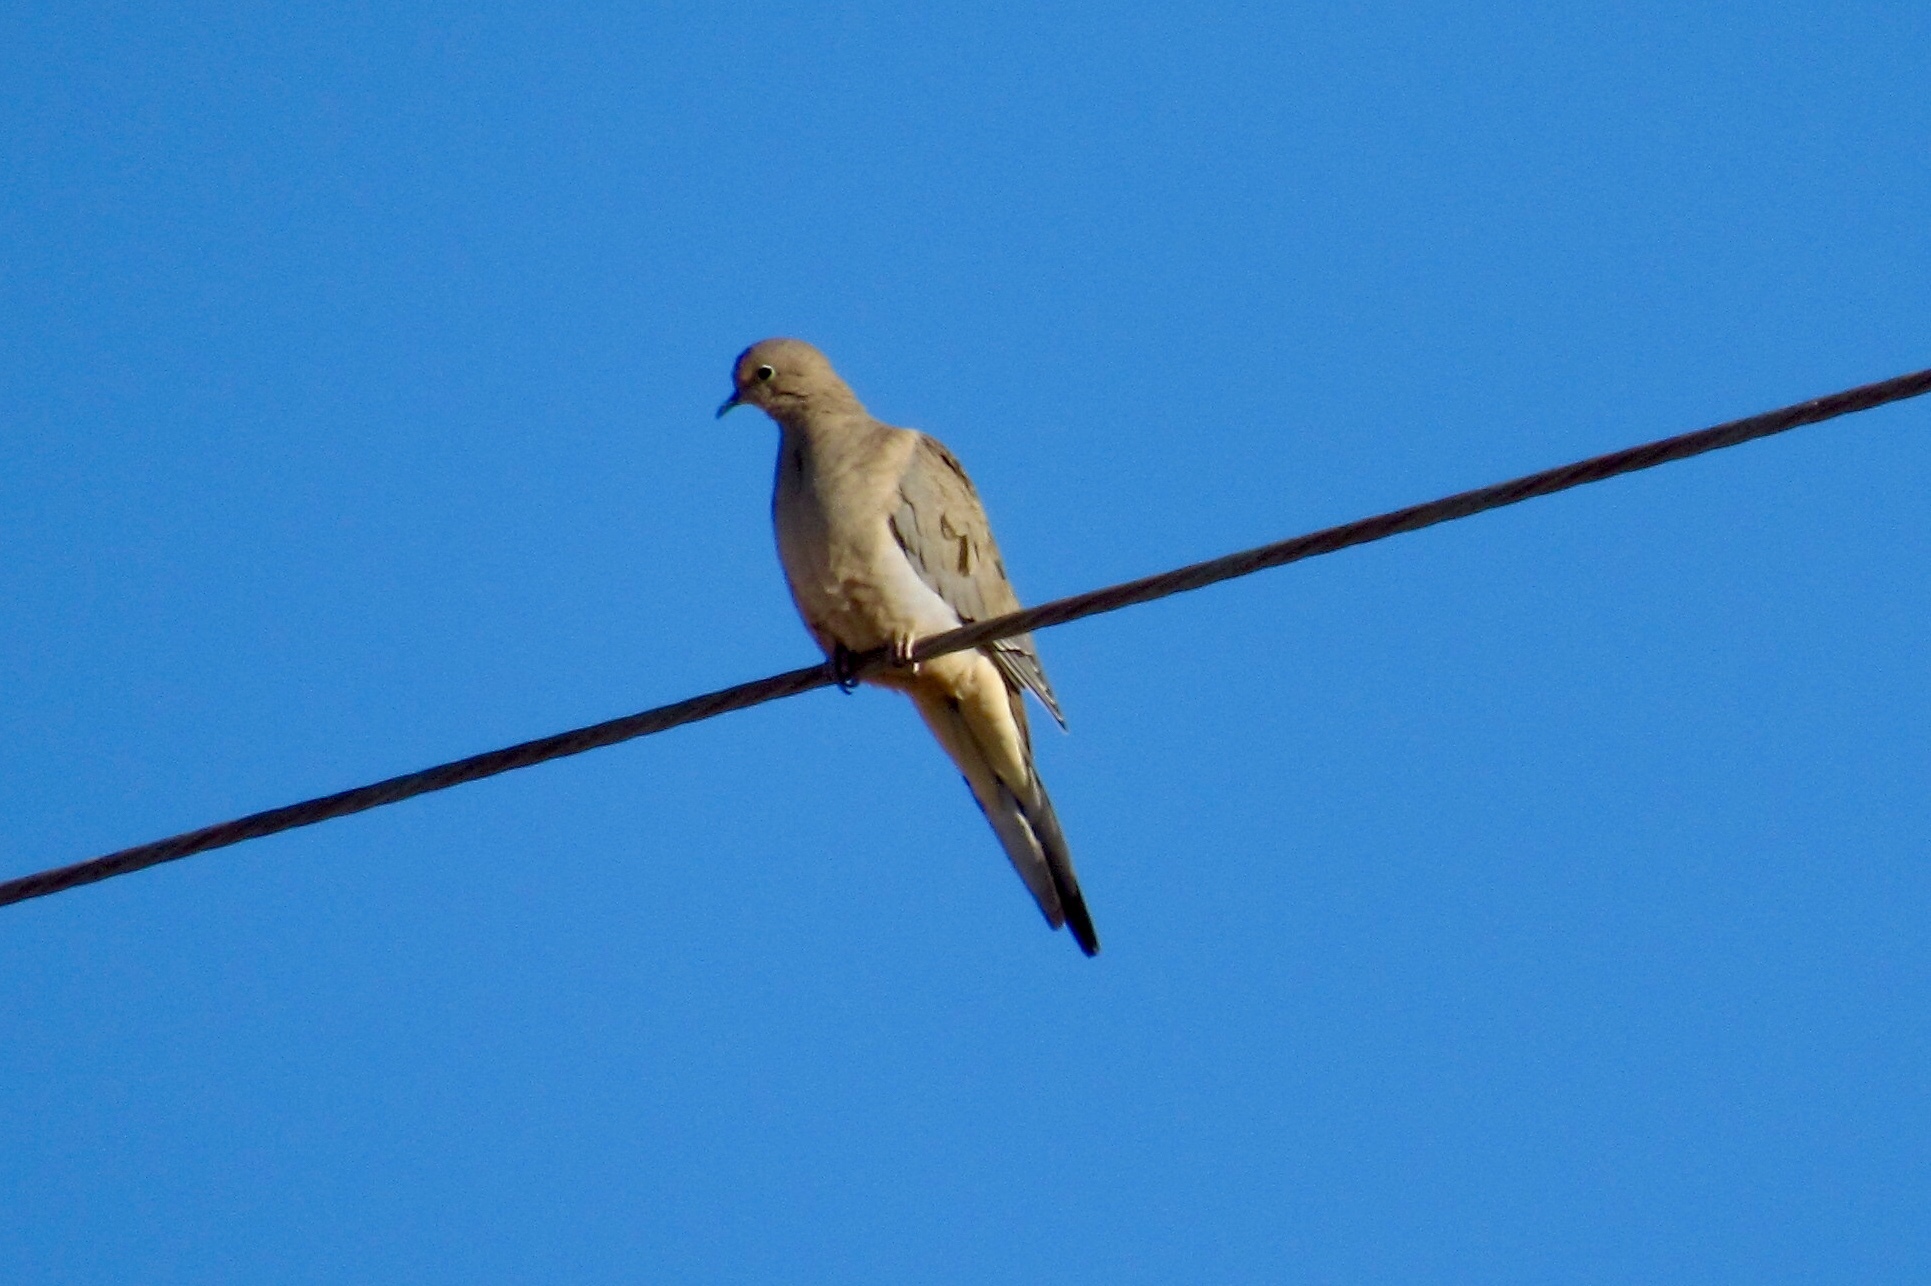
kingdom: Animalia
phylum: Chordata
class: Aves
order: Columbiformes
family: Columbidae
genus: Zenaida
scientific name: Zenaida macroura
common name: Mourning dove
